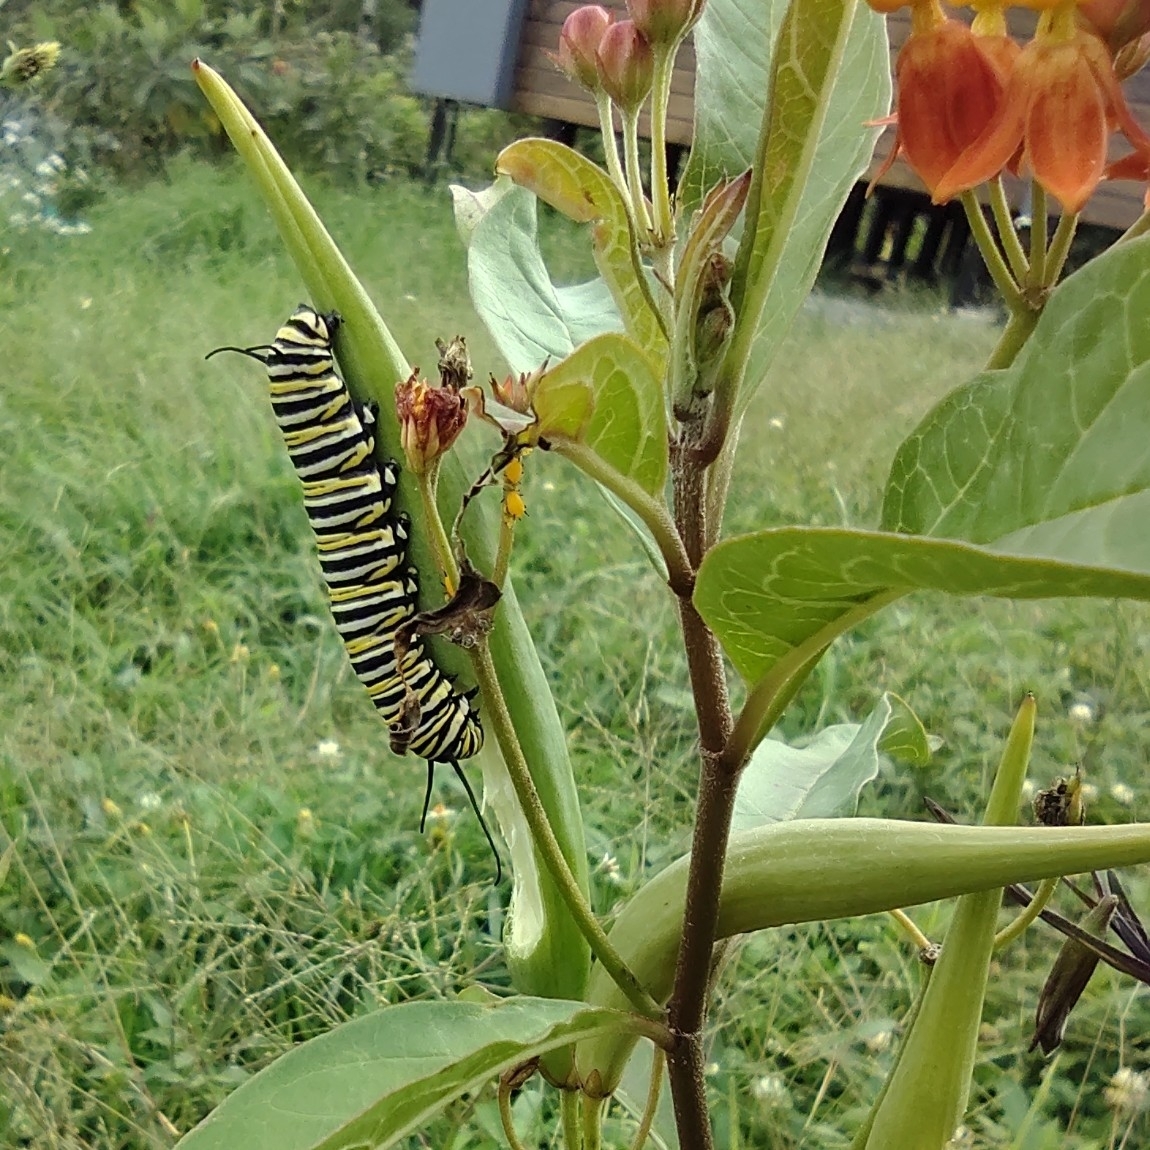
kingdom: Animalia
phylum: Arthropoda
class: Insecta
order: Lepidoptera
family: Nymphalidae
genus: Danaus
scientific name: Danaus plexippus
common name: Monarch
